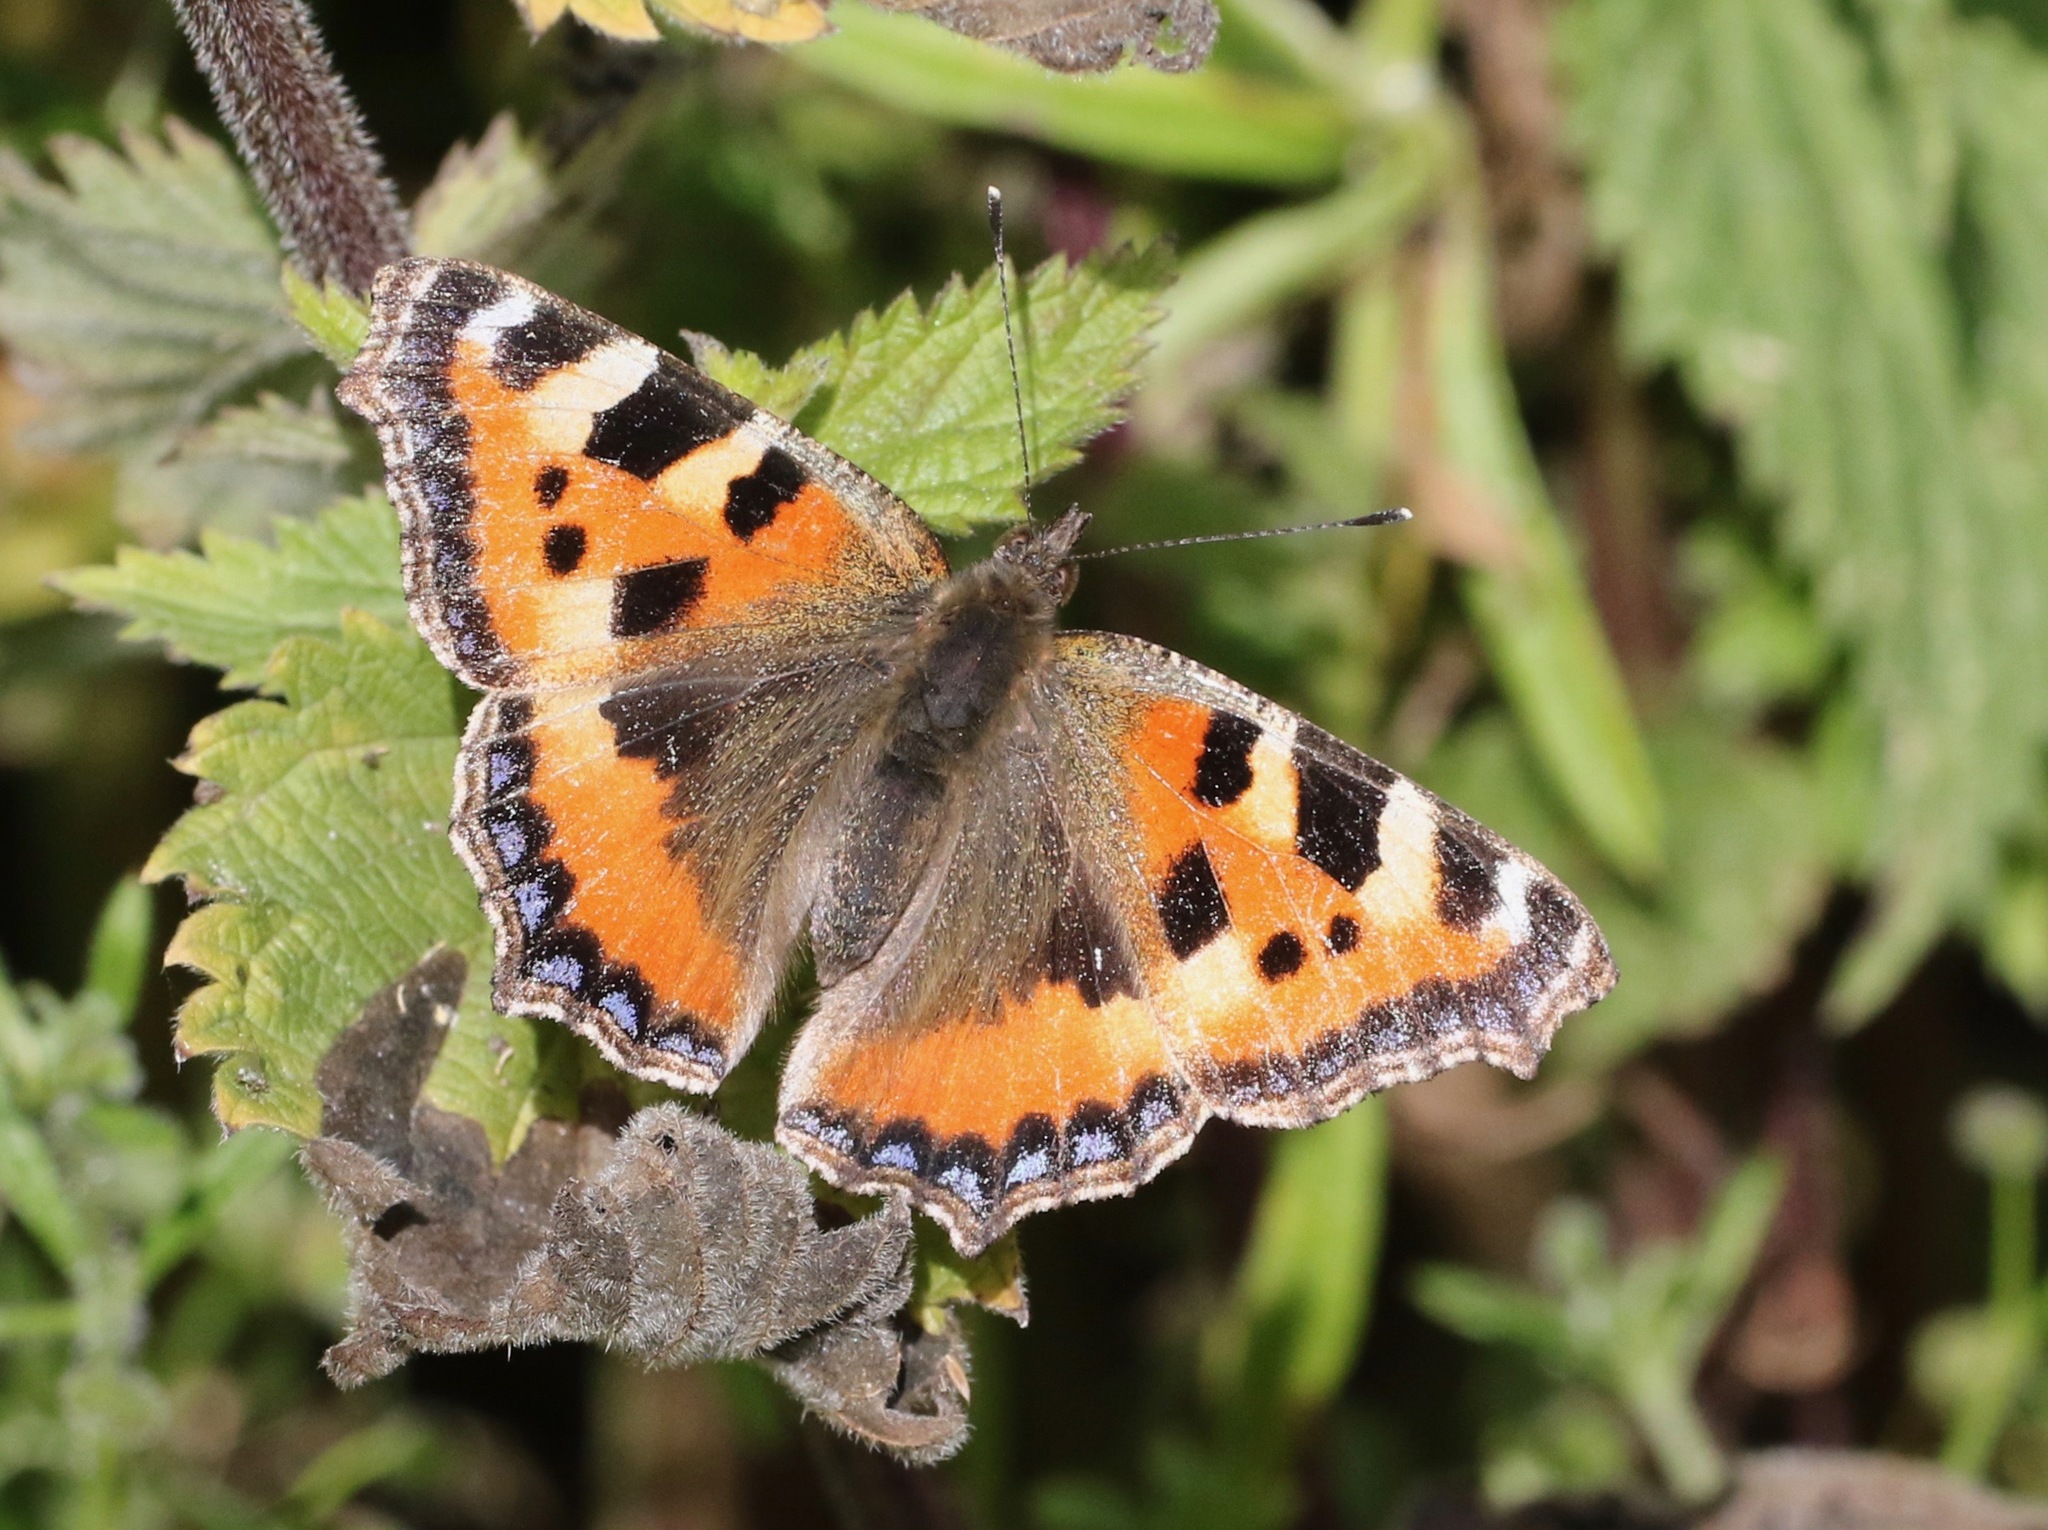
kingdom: Animalia
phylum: Arthropoda
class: Insecta
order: Lepidoptera
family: Nymphalidae
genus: Aglais
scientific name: Aglais urticae
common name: Small tortoiseshell
